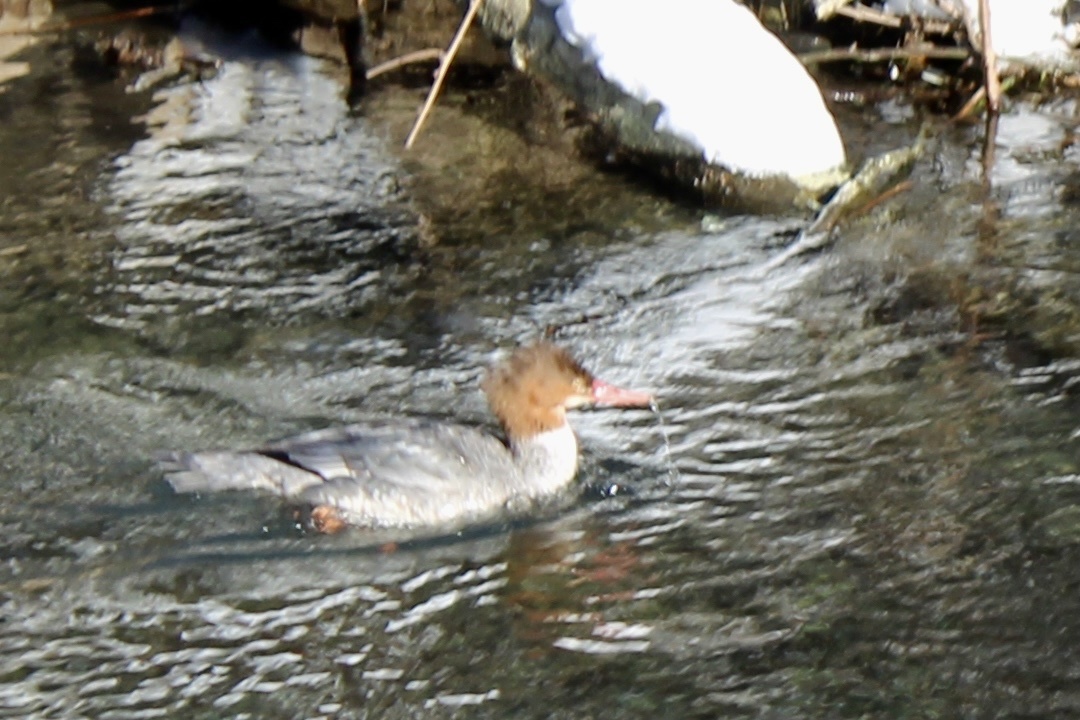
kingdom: Animalia
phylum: Chordata
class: Aves
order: Anseriformes
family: Anatidae
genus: Mergus
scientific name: Mergus merganser
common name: Common merganser
